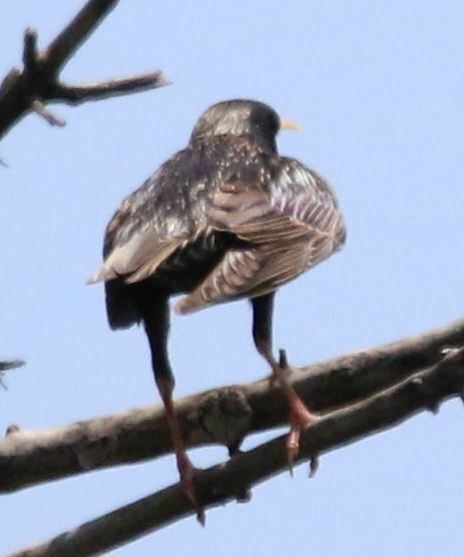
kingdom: Animalia
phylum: Chordata
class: Aves
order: Passeriformes
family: Sturnidae
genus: Sturnus
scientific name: Sturnus vulgaris
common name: Common starling
